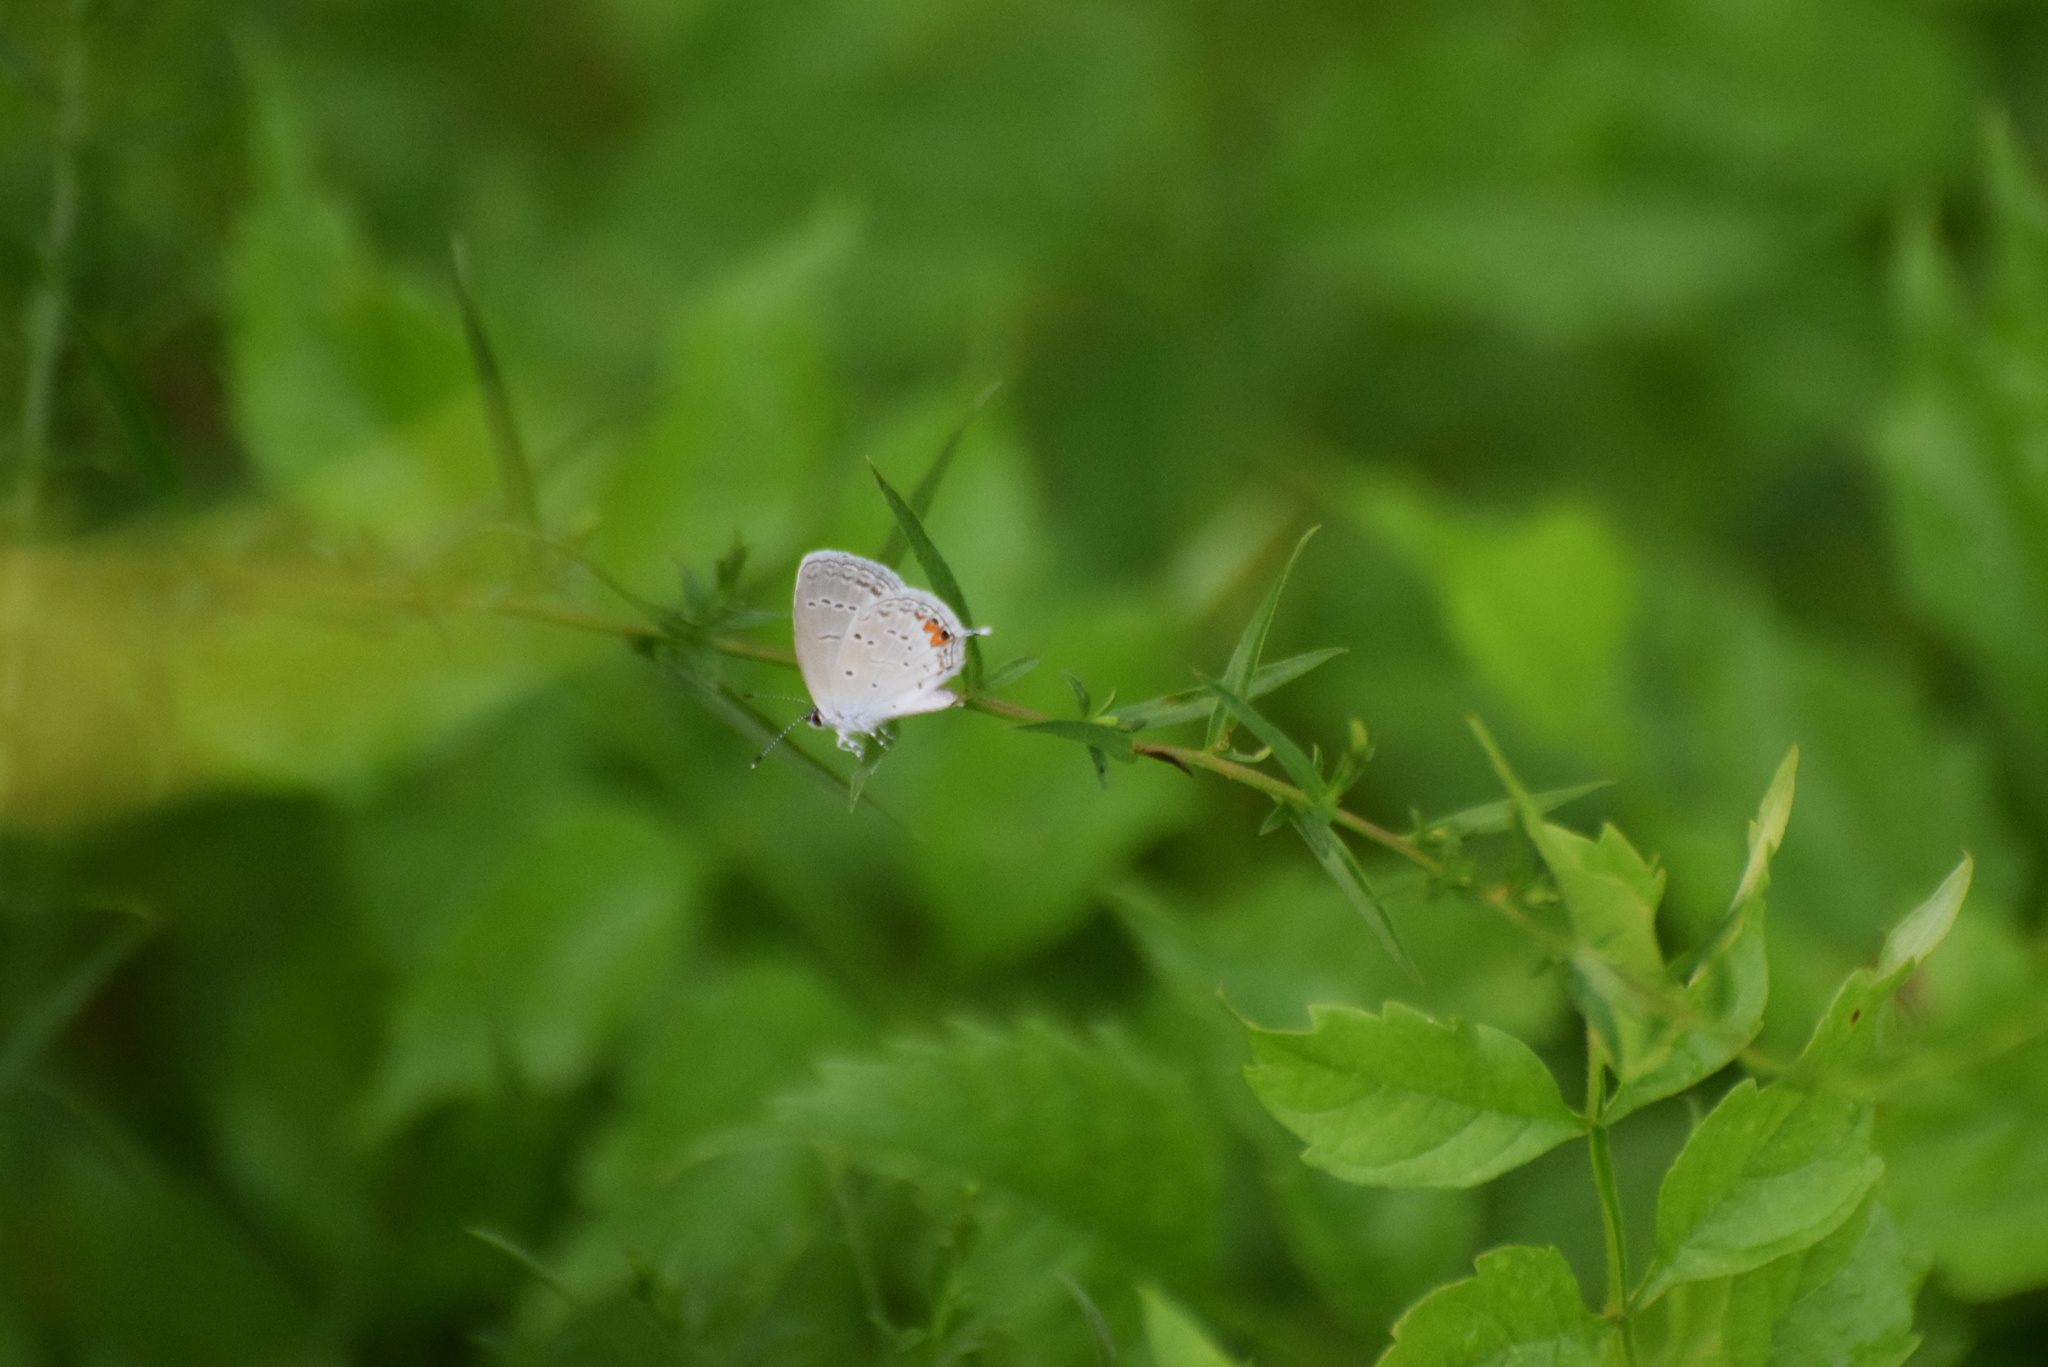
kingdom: Animalia
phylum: Arthropoda
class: Insecta
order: Lepidoptera
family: Lycaenidae
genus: Elkalyce
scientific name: Elkalyce comyntas
